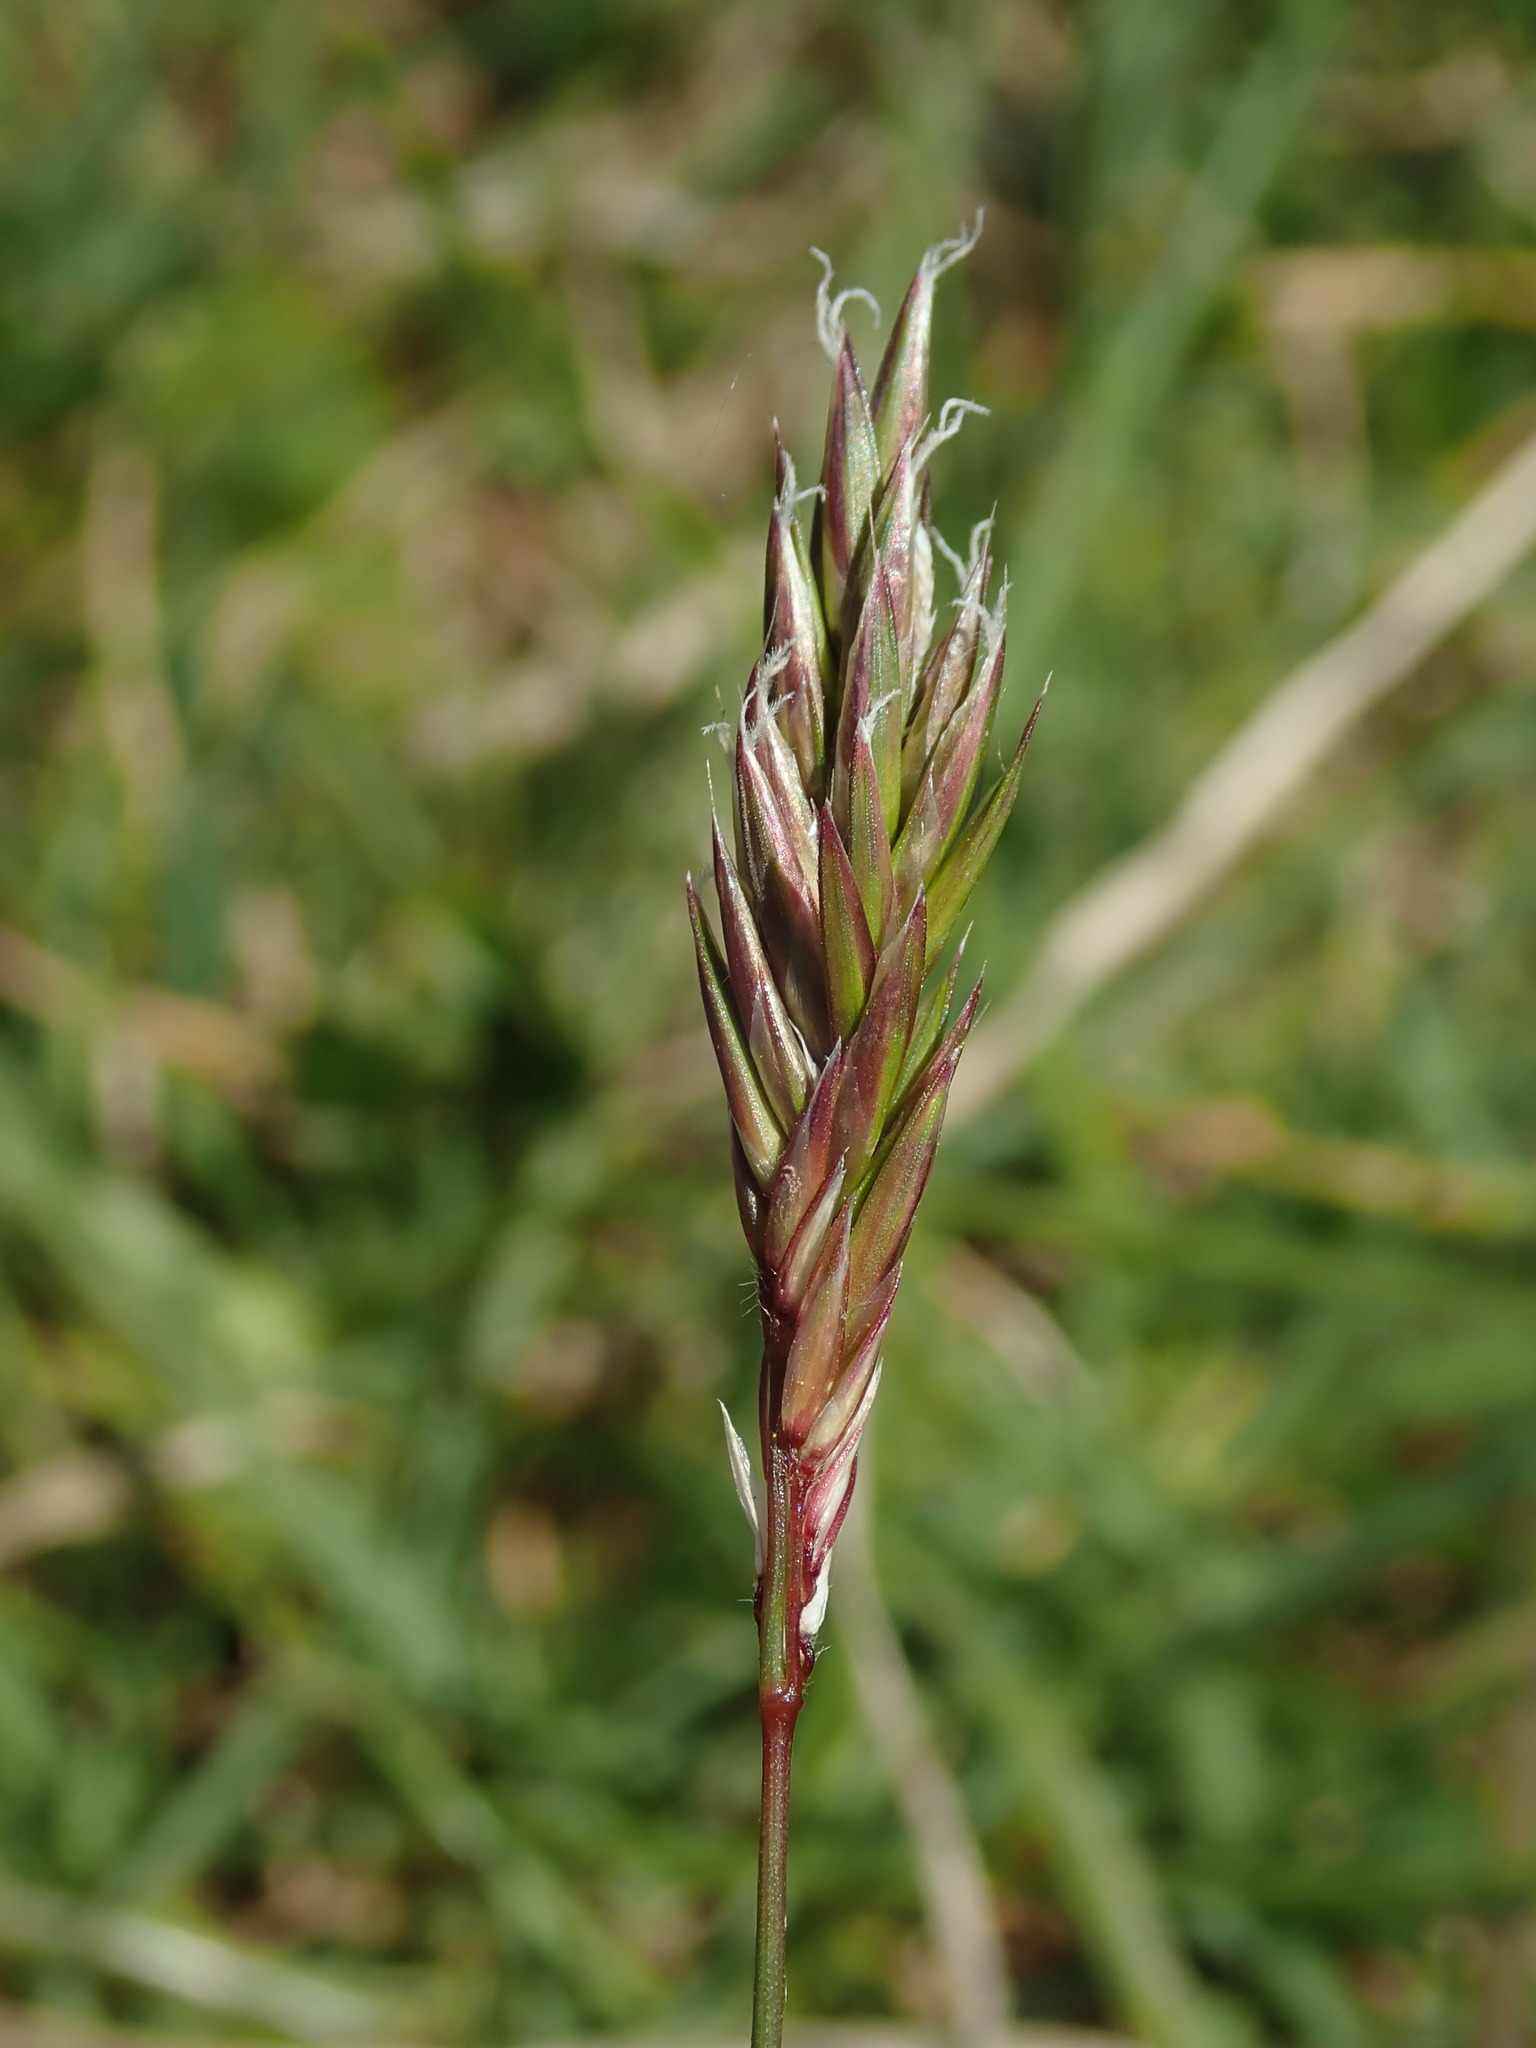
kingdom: Plantae
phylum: Tracheophyta
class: Liliopsida
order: Poales
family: Poaceae
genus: Anthoxanthum
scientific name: Anthoxanthum odoratum
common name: Sweet vernalgrass
